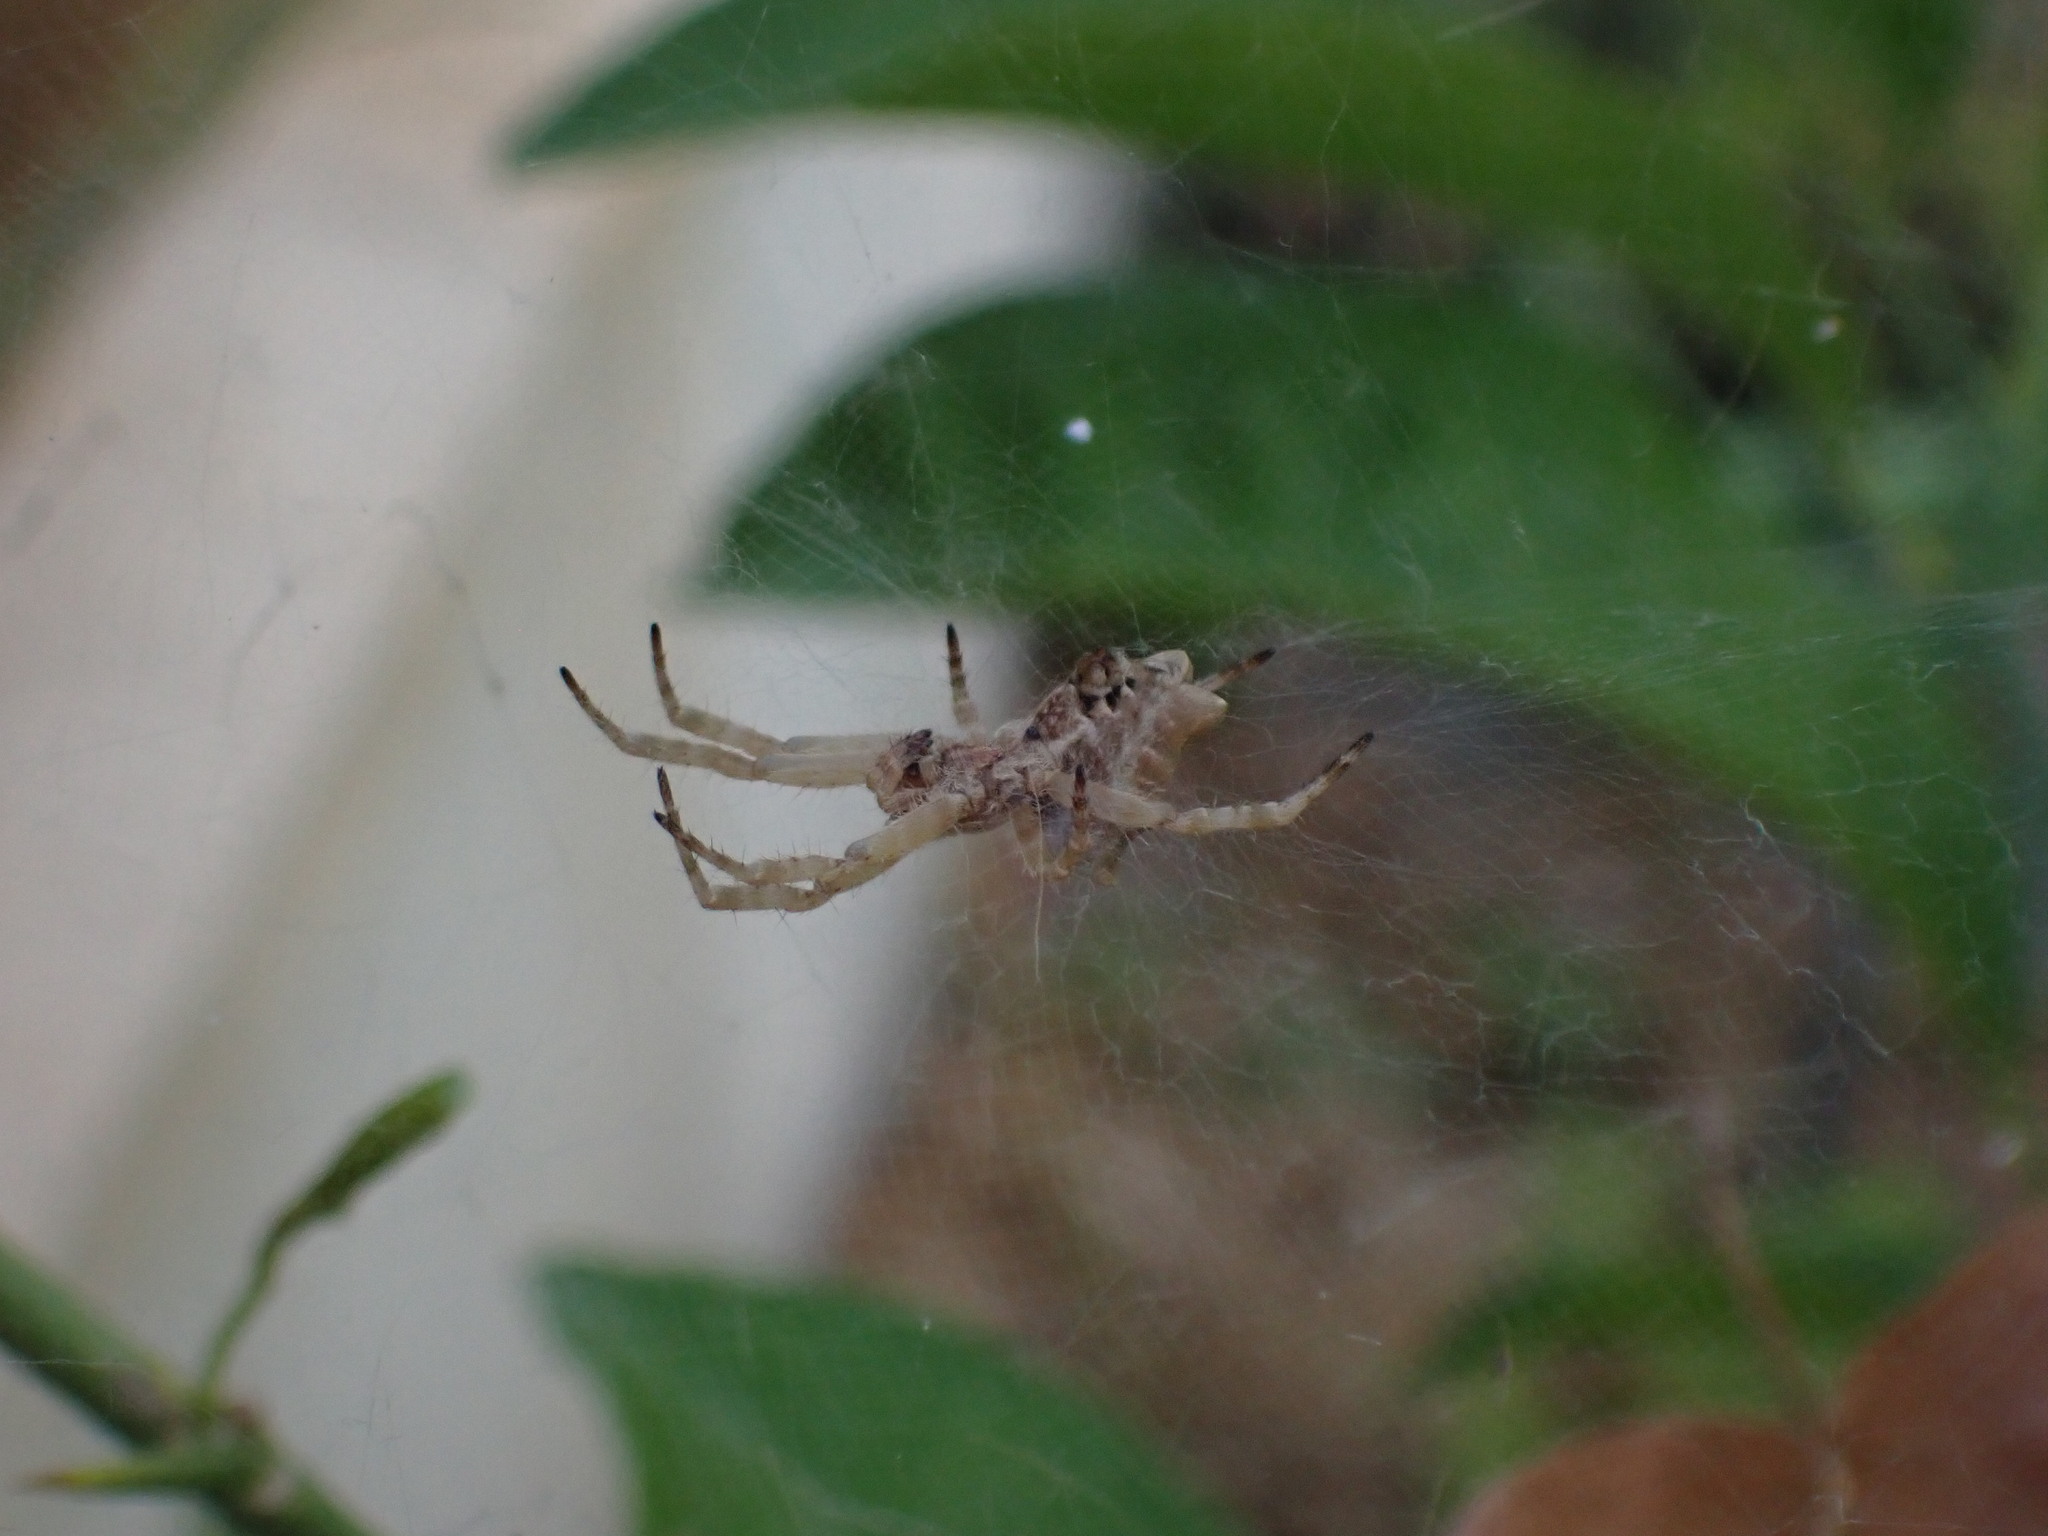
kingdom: Animalia
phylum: Arthropoda
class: Arachnida
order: Araneae
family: Araneidae
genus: Cyrtophora
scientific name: Cyrtophora citricola
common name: Orb weavers
